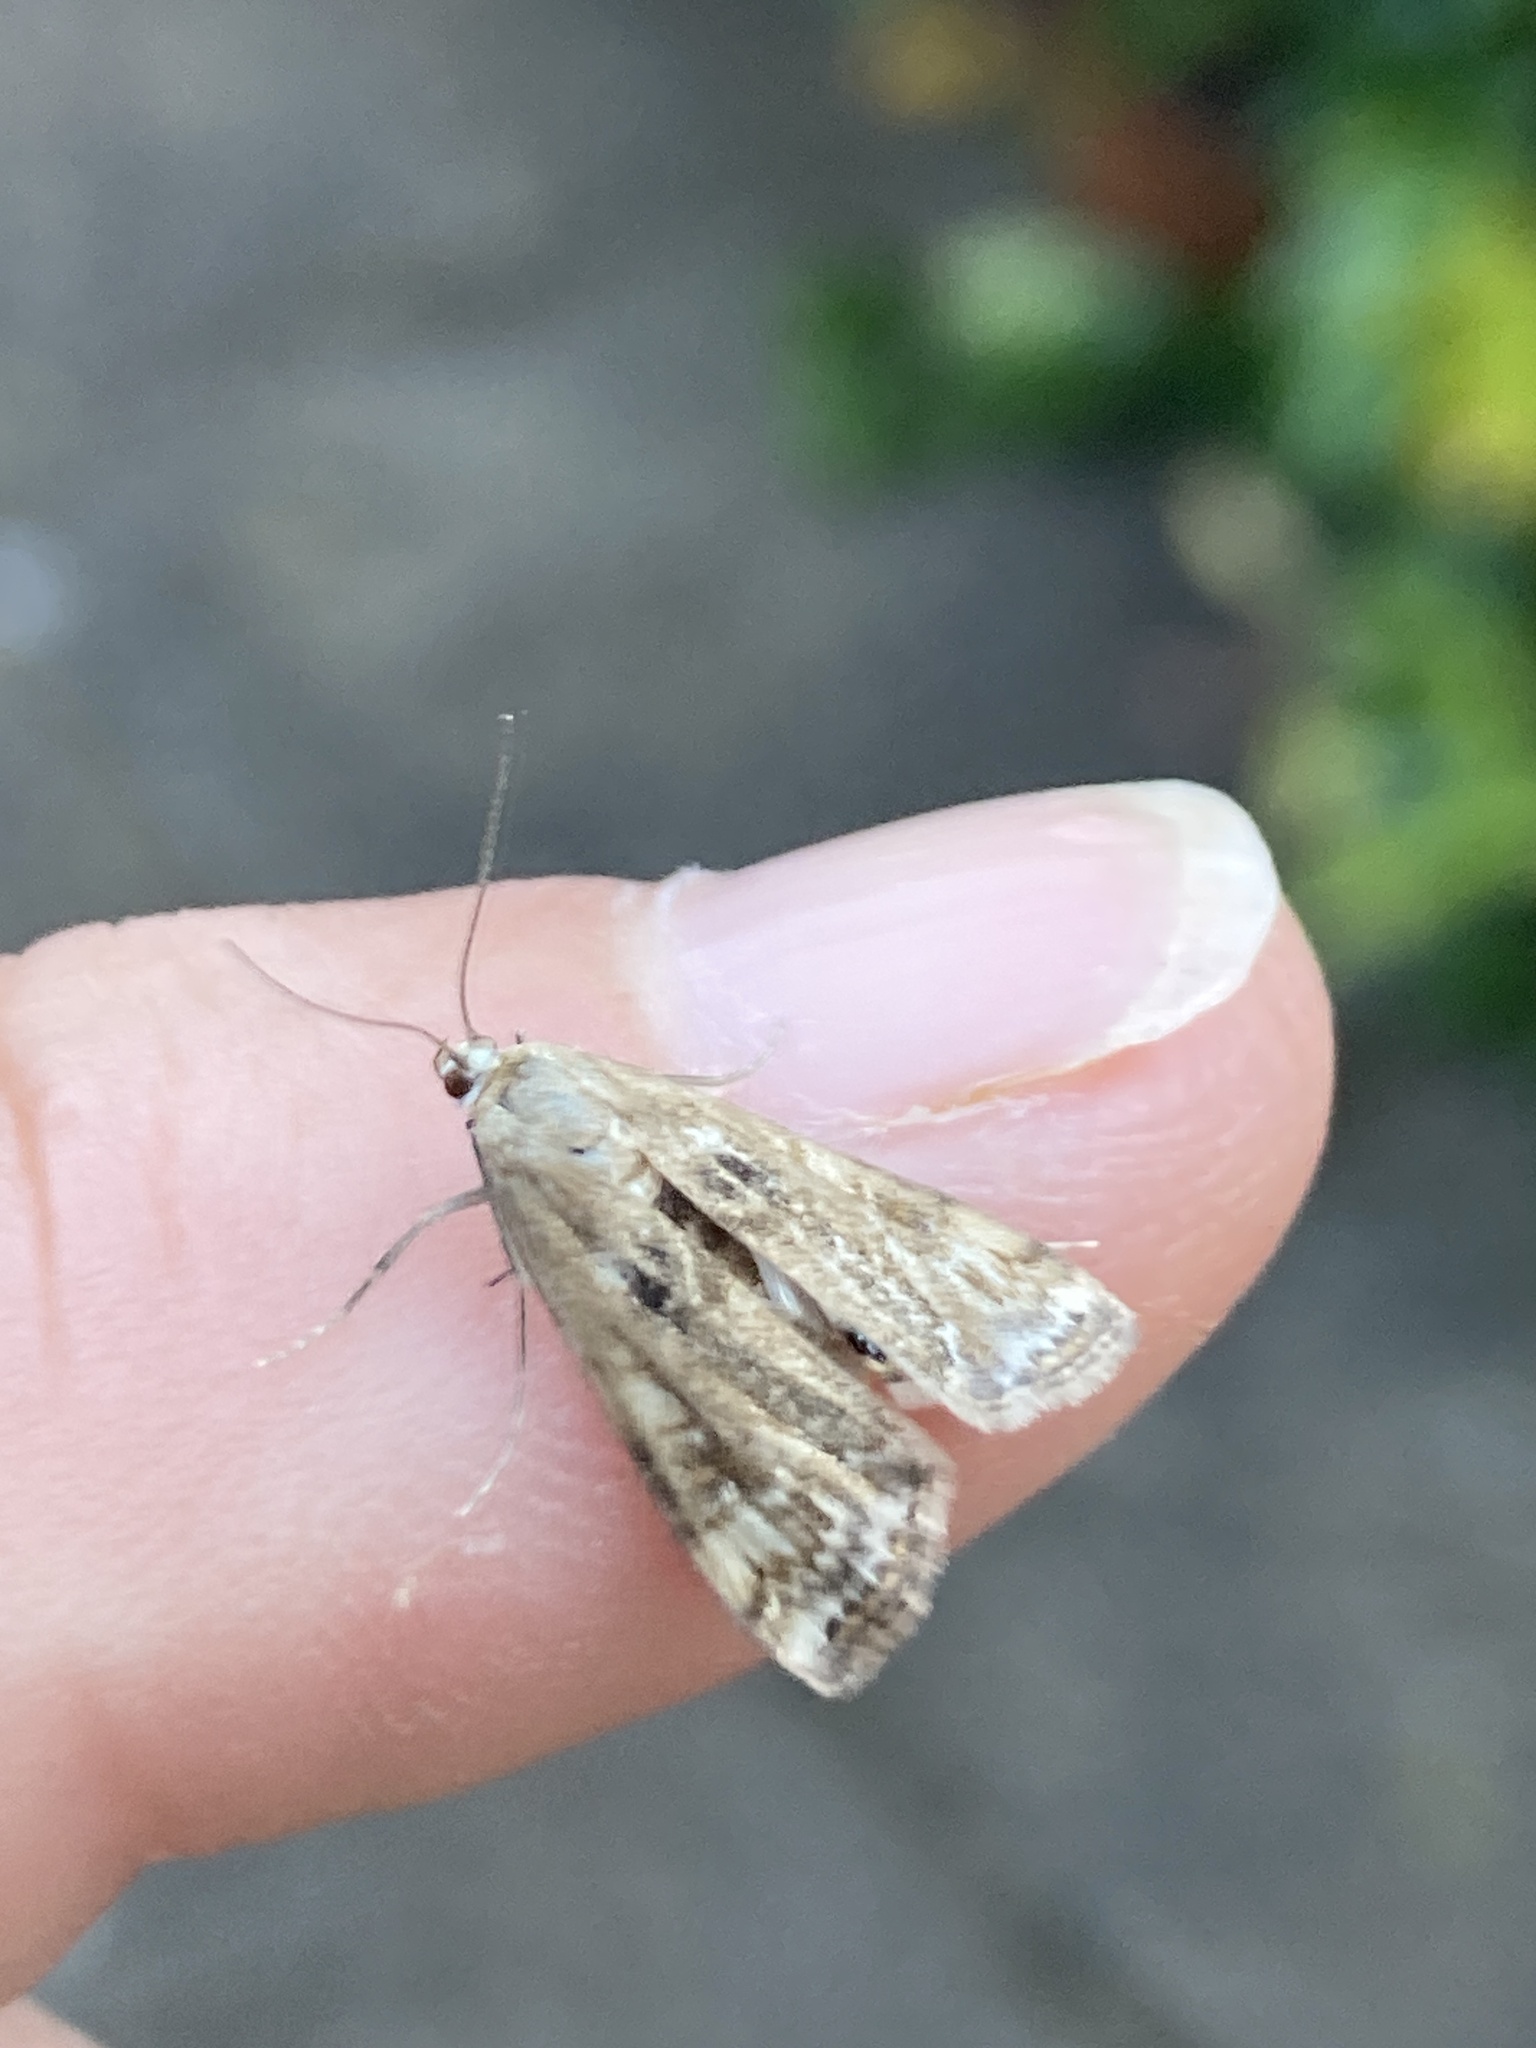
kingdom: Animalia
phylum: Arthropoda
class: Insecta
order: Lepidoptera
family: Crambidae
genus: Cataclysta
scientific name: Cataclysta lemnata
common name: Small china-mark
